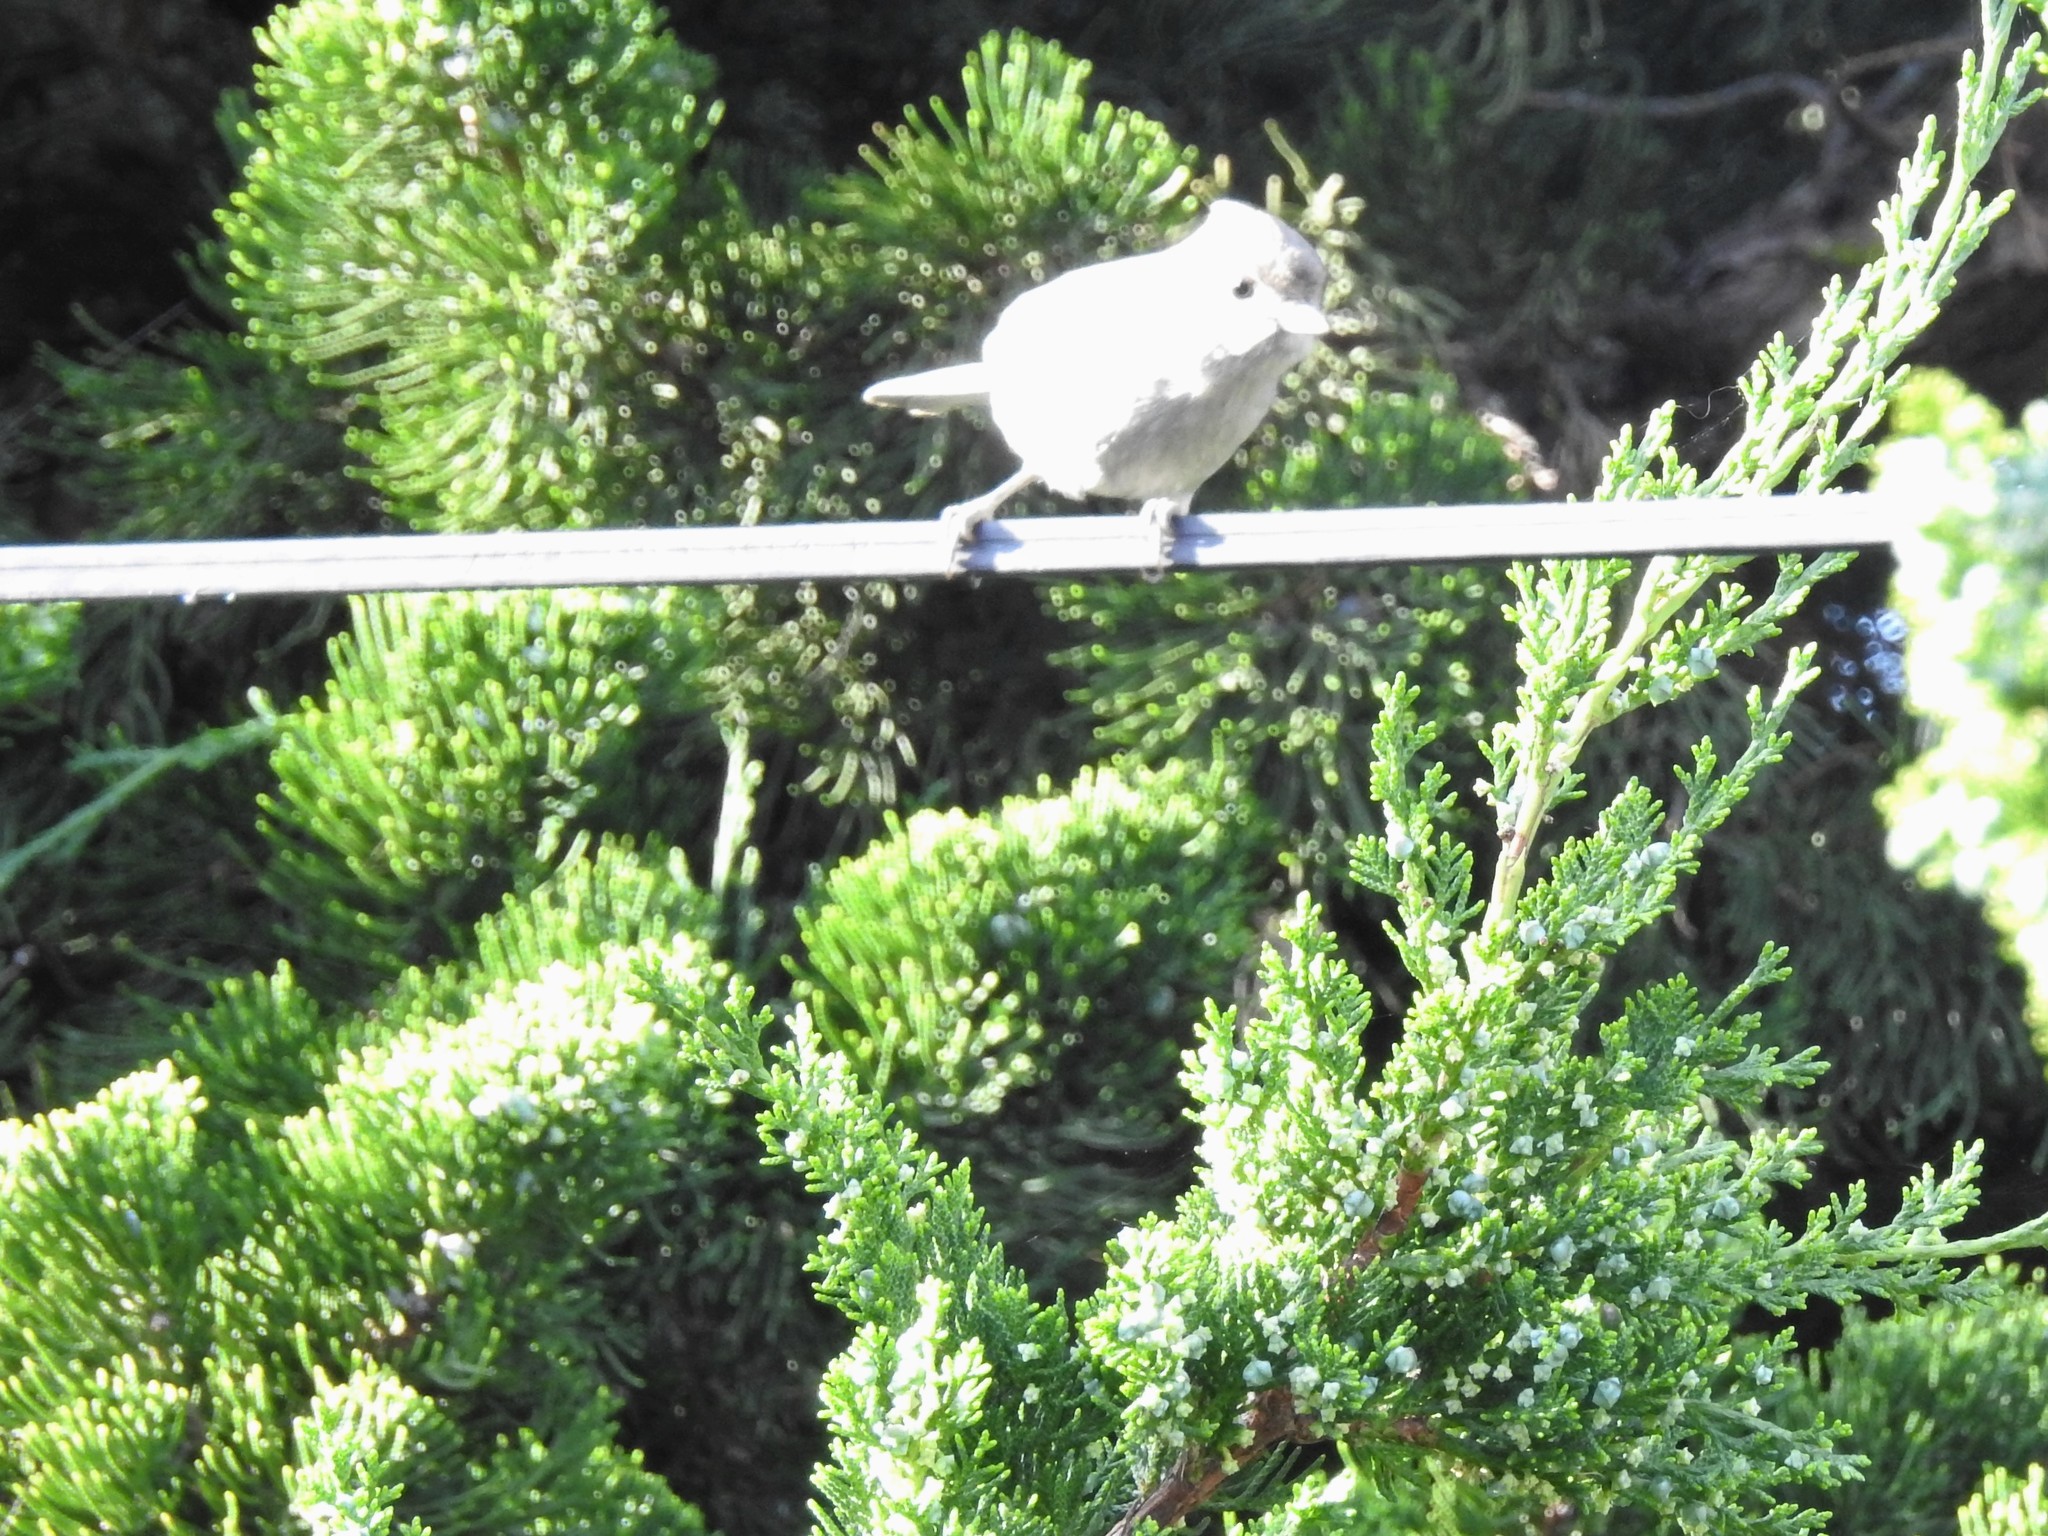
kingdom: Animalia
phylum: Chordata
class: Aves
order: Passeriformes
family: Paridae
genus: Baeolophus
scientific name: Baeolophus inornatus
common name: Oak titmouse
